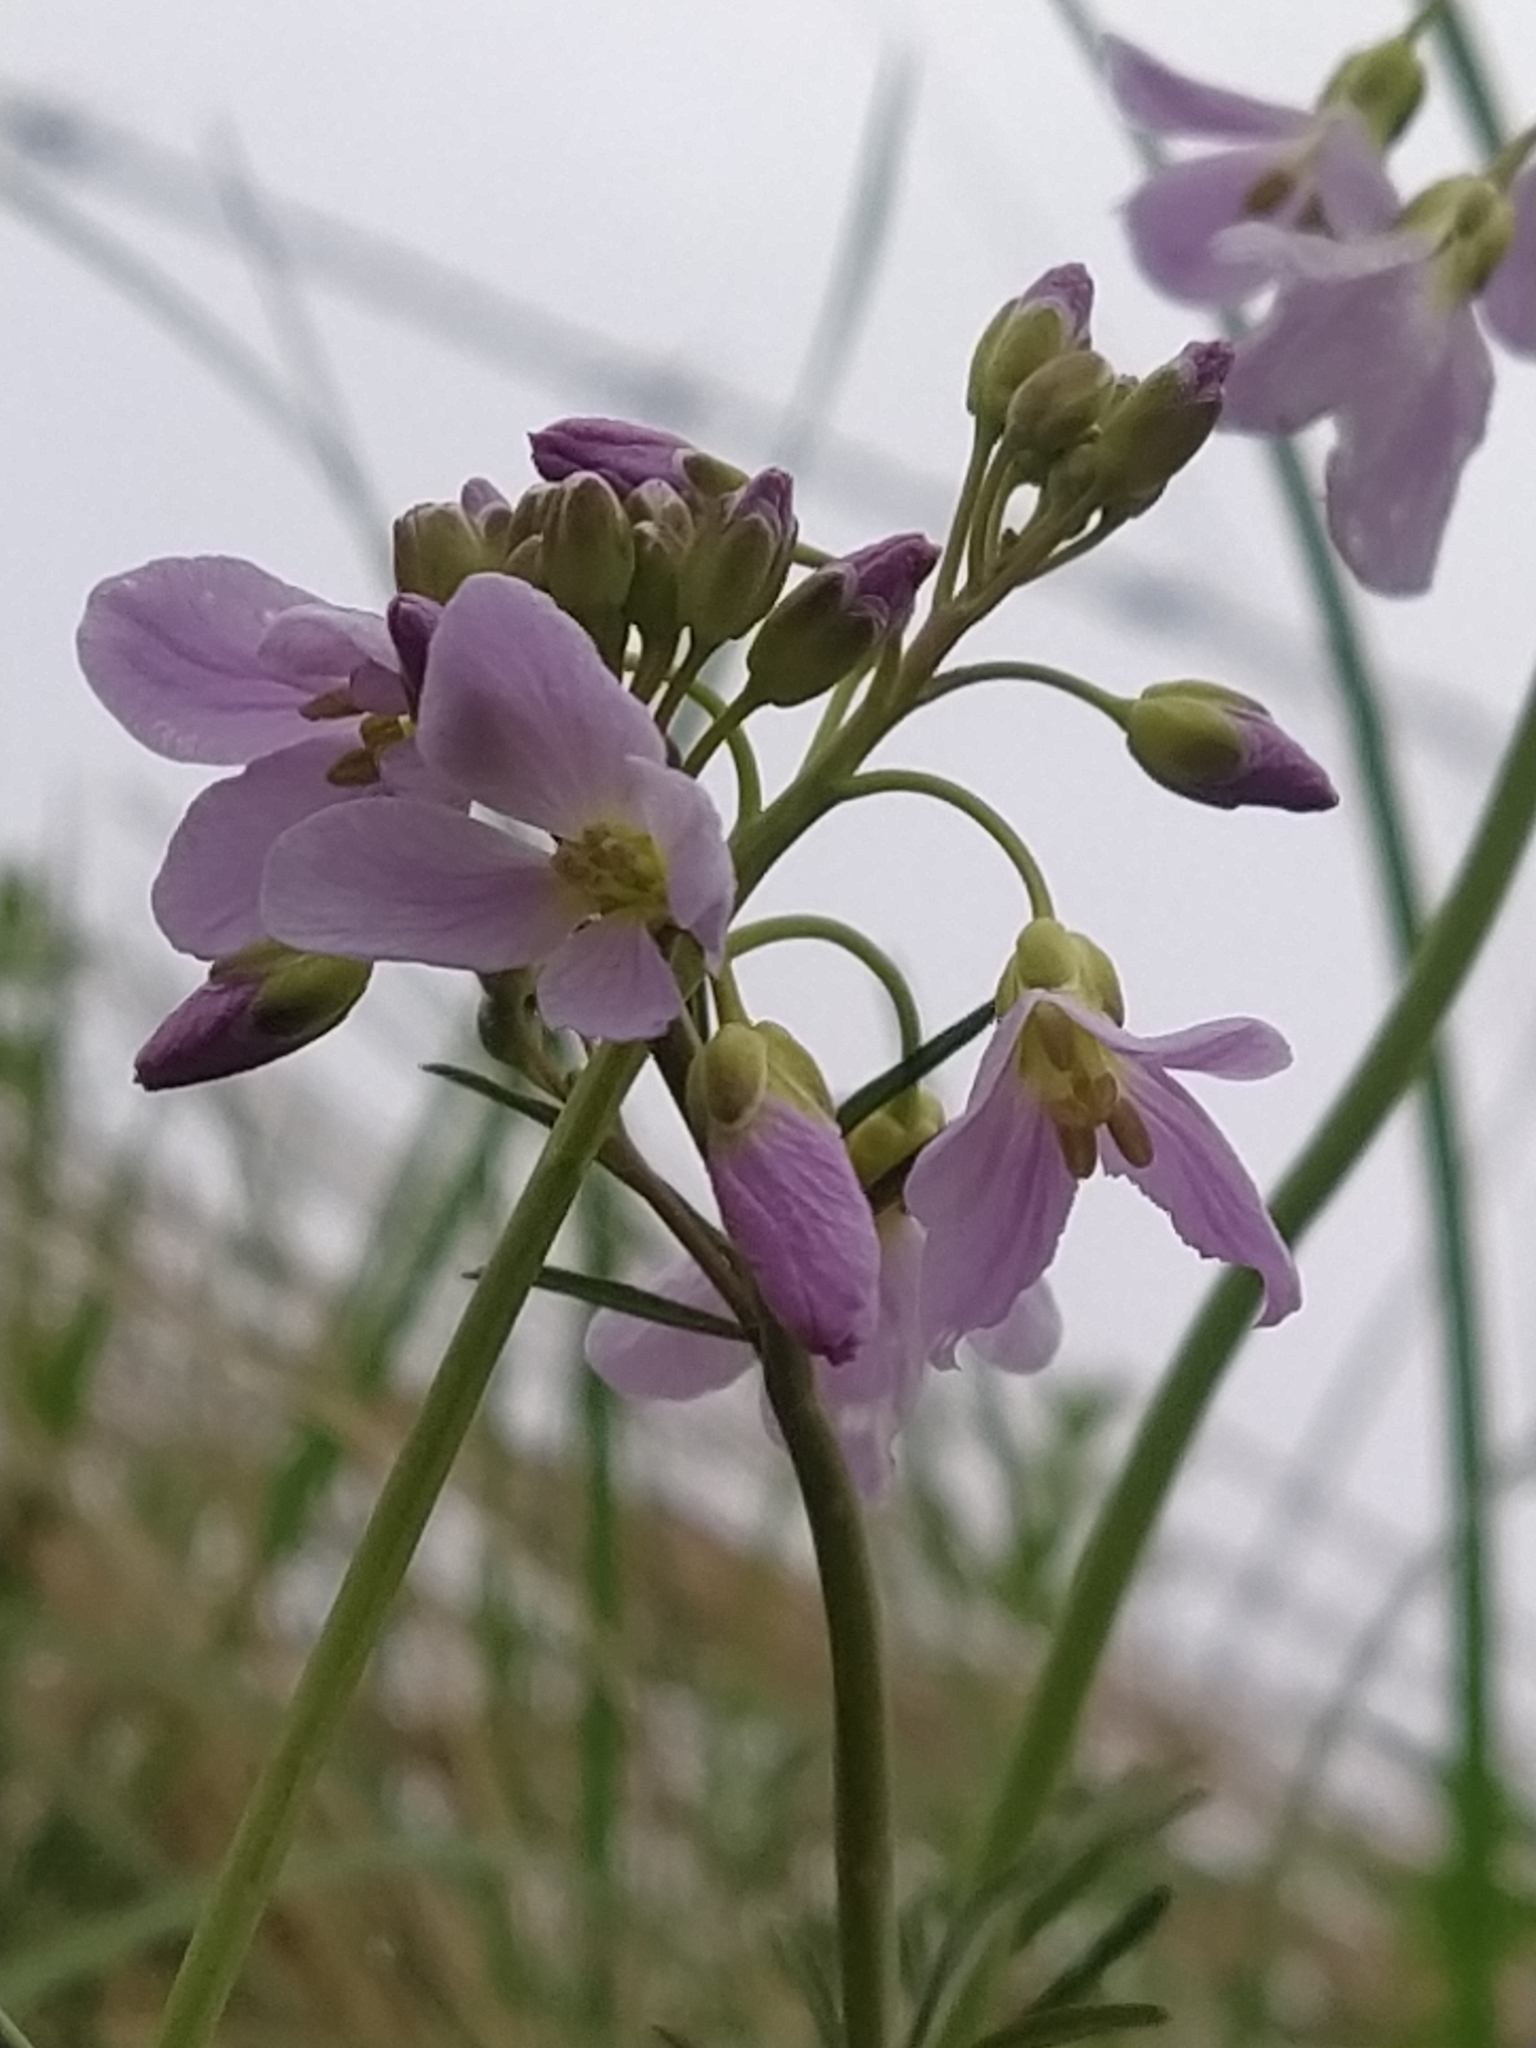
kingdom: Plantae
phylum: Tracheophyta
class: Magnoliopsida
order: Brassicales
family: Brassicaceae
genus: Cardamine
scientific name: Cardamine pratensis
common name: Cuckoo flower
